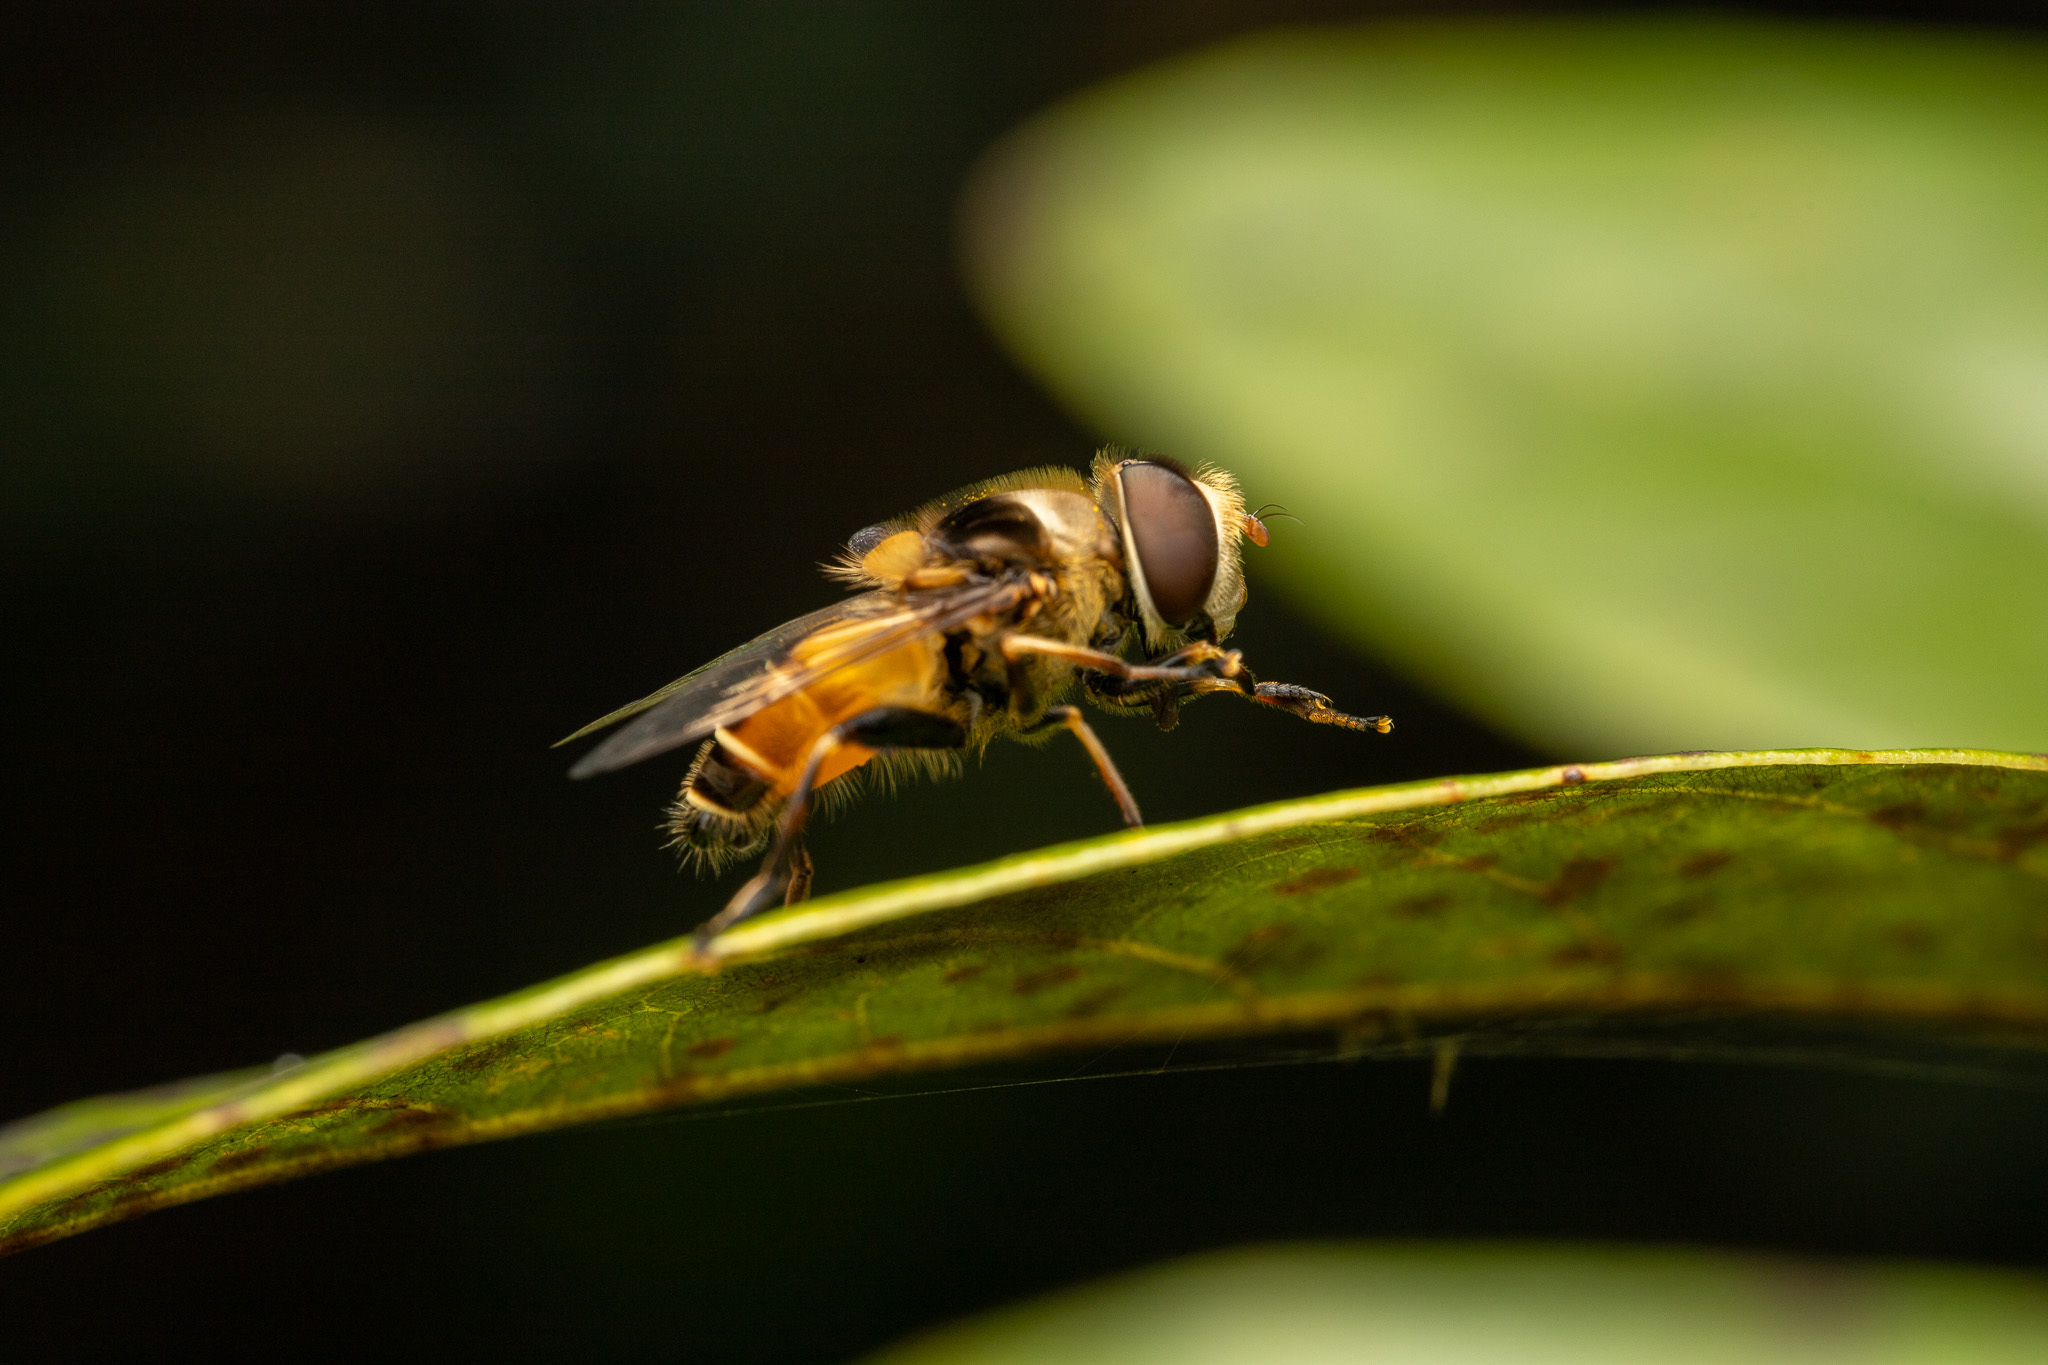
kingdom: Animalia
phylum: Arthropoda
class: Insecta
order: Diptera
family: Syrphidae
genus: Palpada
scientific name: Palpada pusilla
